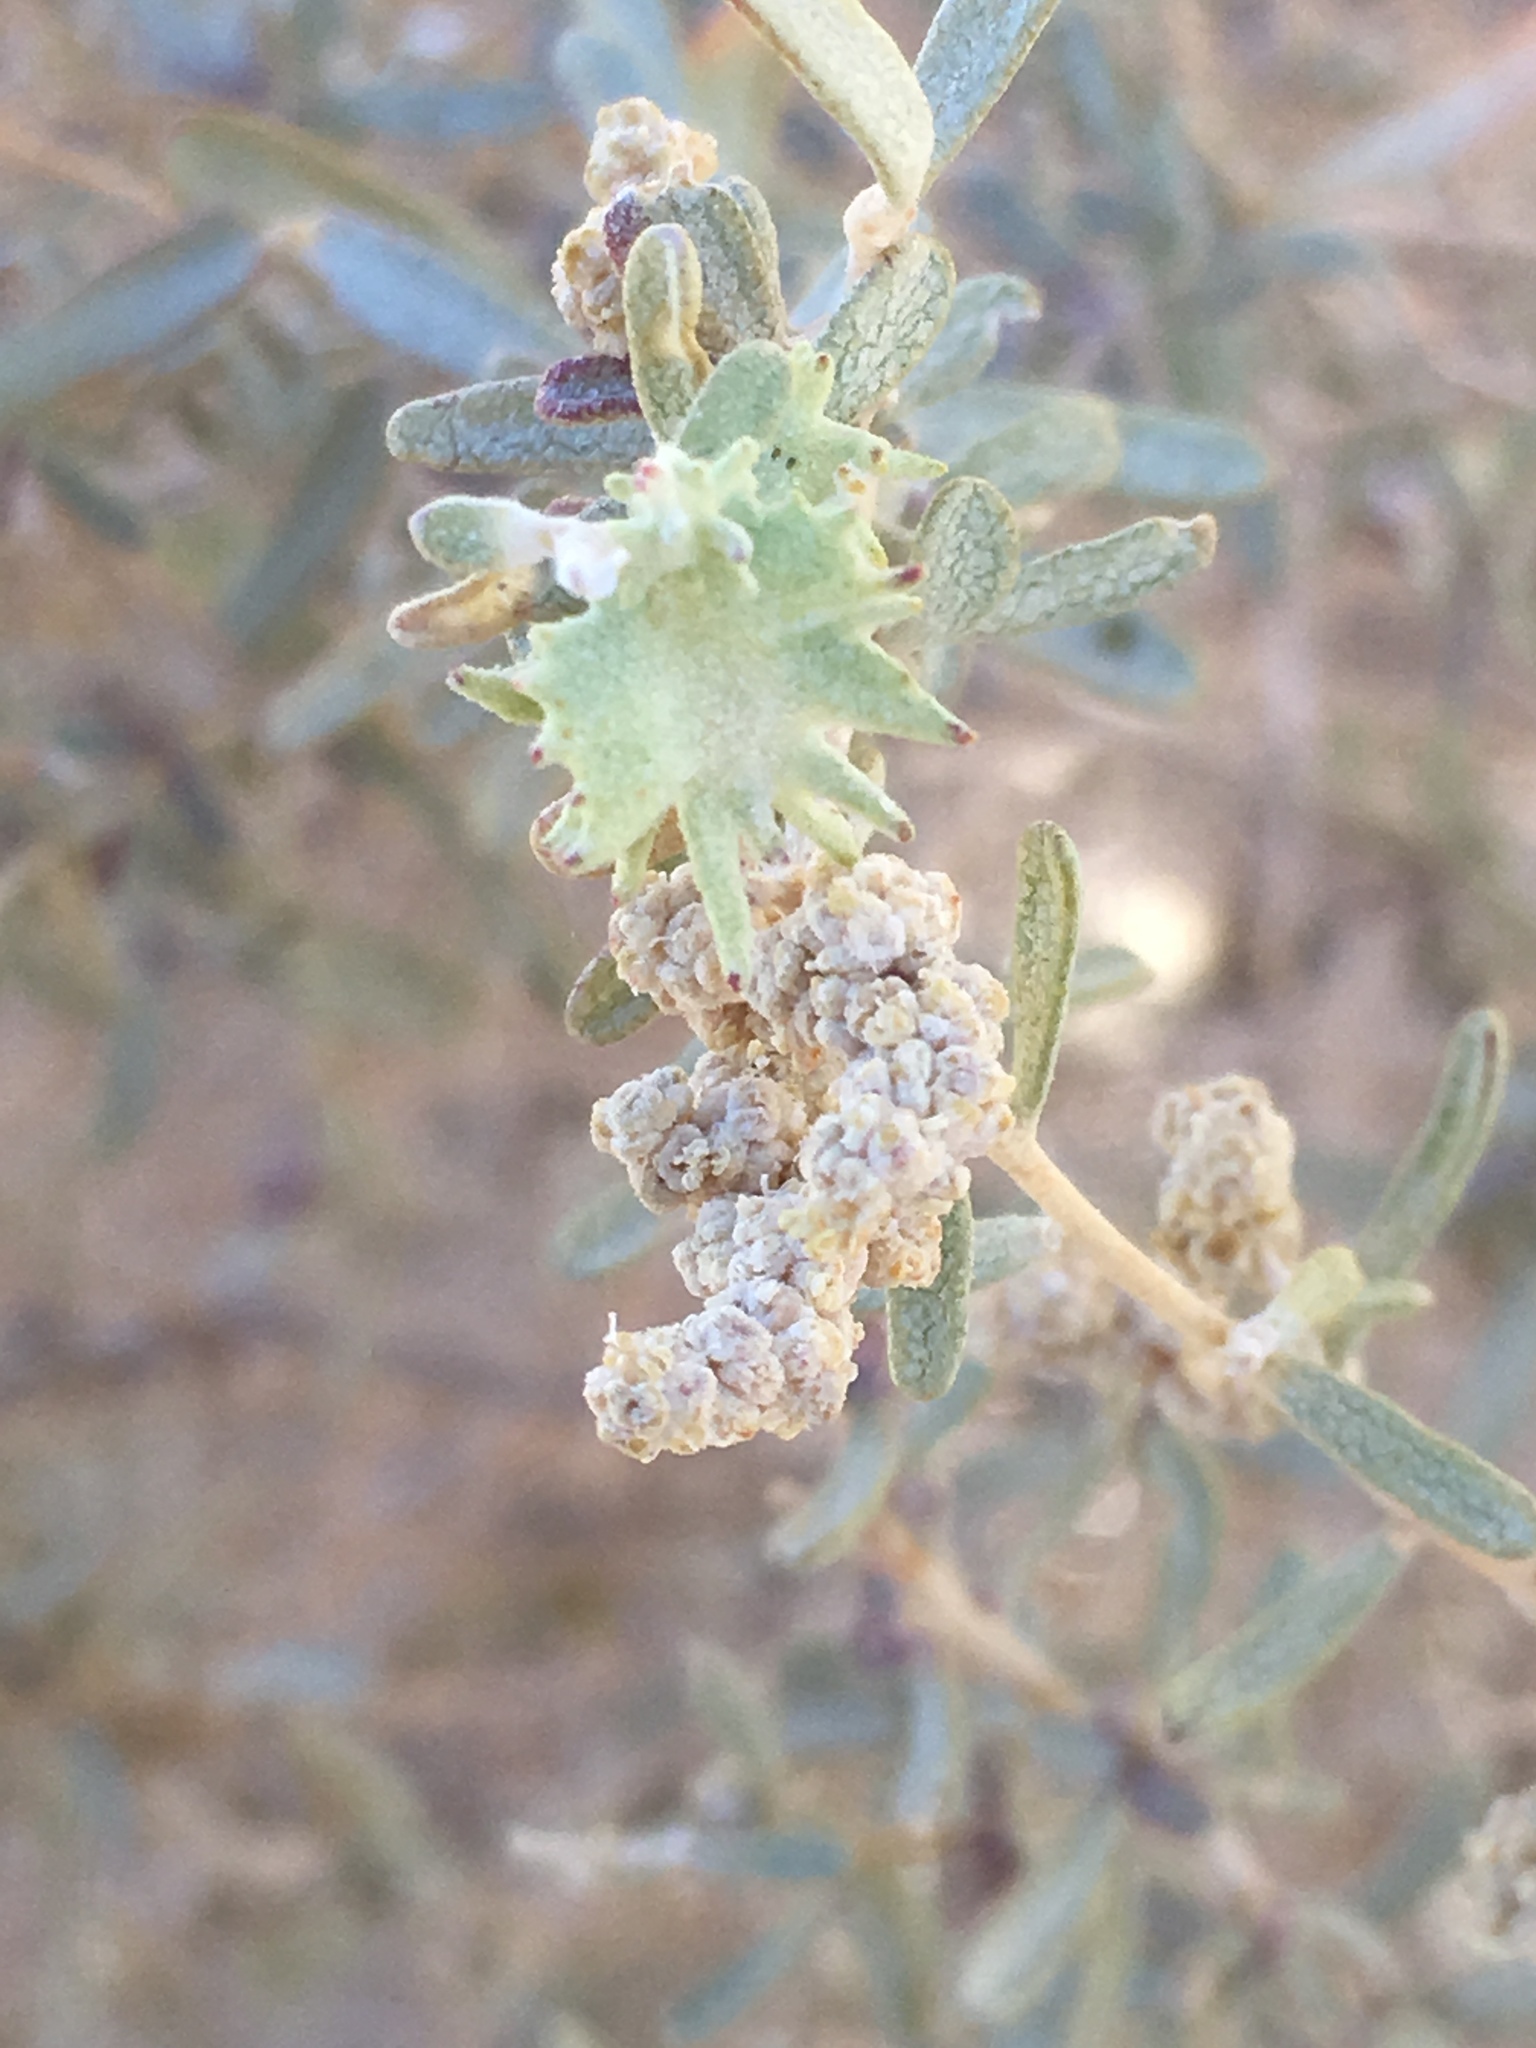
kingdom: Plantae
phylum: Tracheophyta
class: Magnoliopsida
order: Caryophyllales
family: Amaranthaceae
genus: Atriplex
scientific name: Atriplex canescens
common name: Four-wing saltbush
